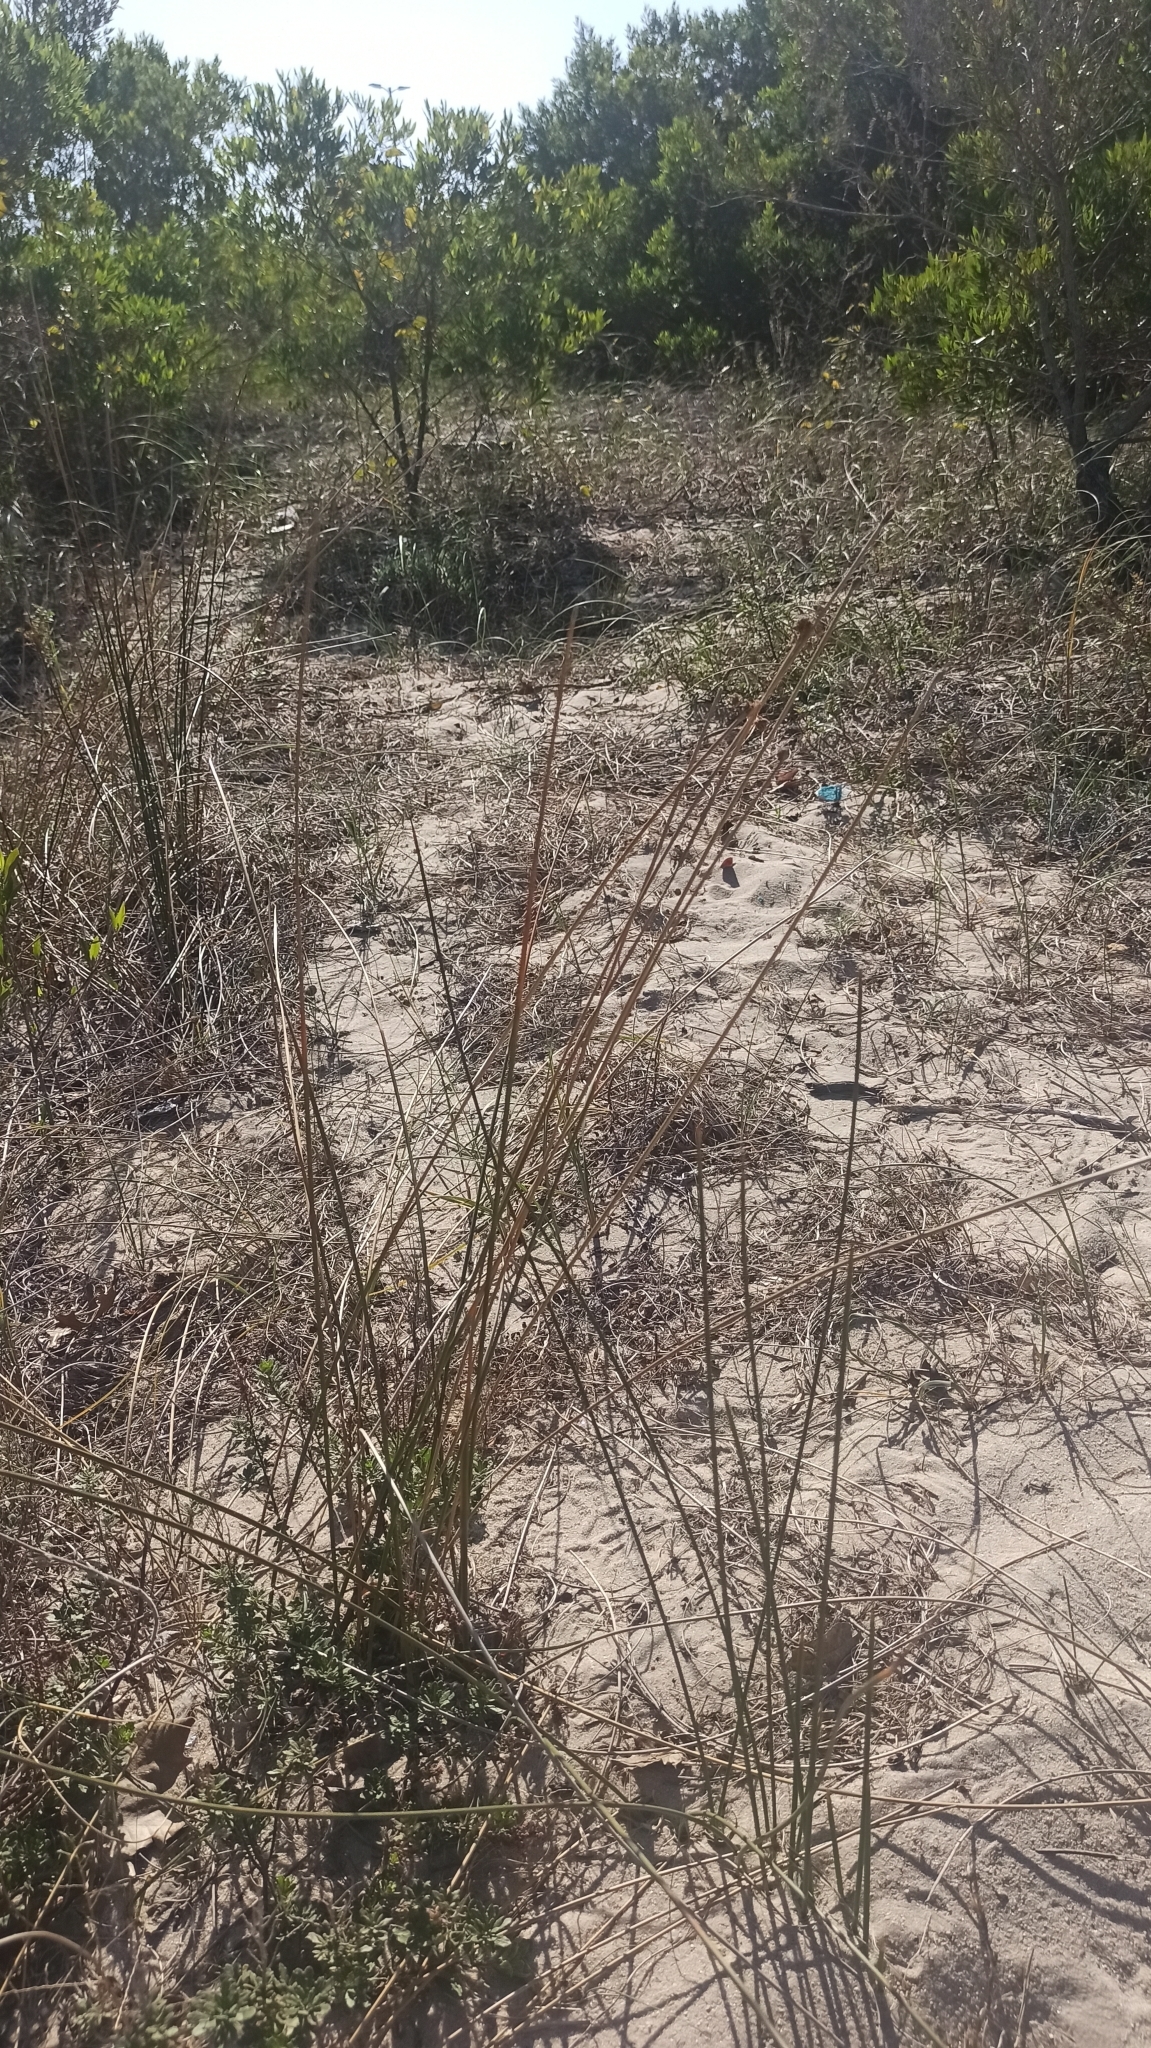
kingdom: Plantae
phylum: Tracheophyta
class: Liliopsida
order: Poales
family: Cyperaceae
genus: Cyperus
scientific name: Cyperus trigynus
